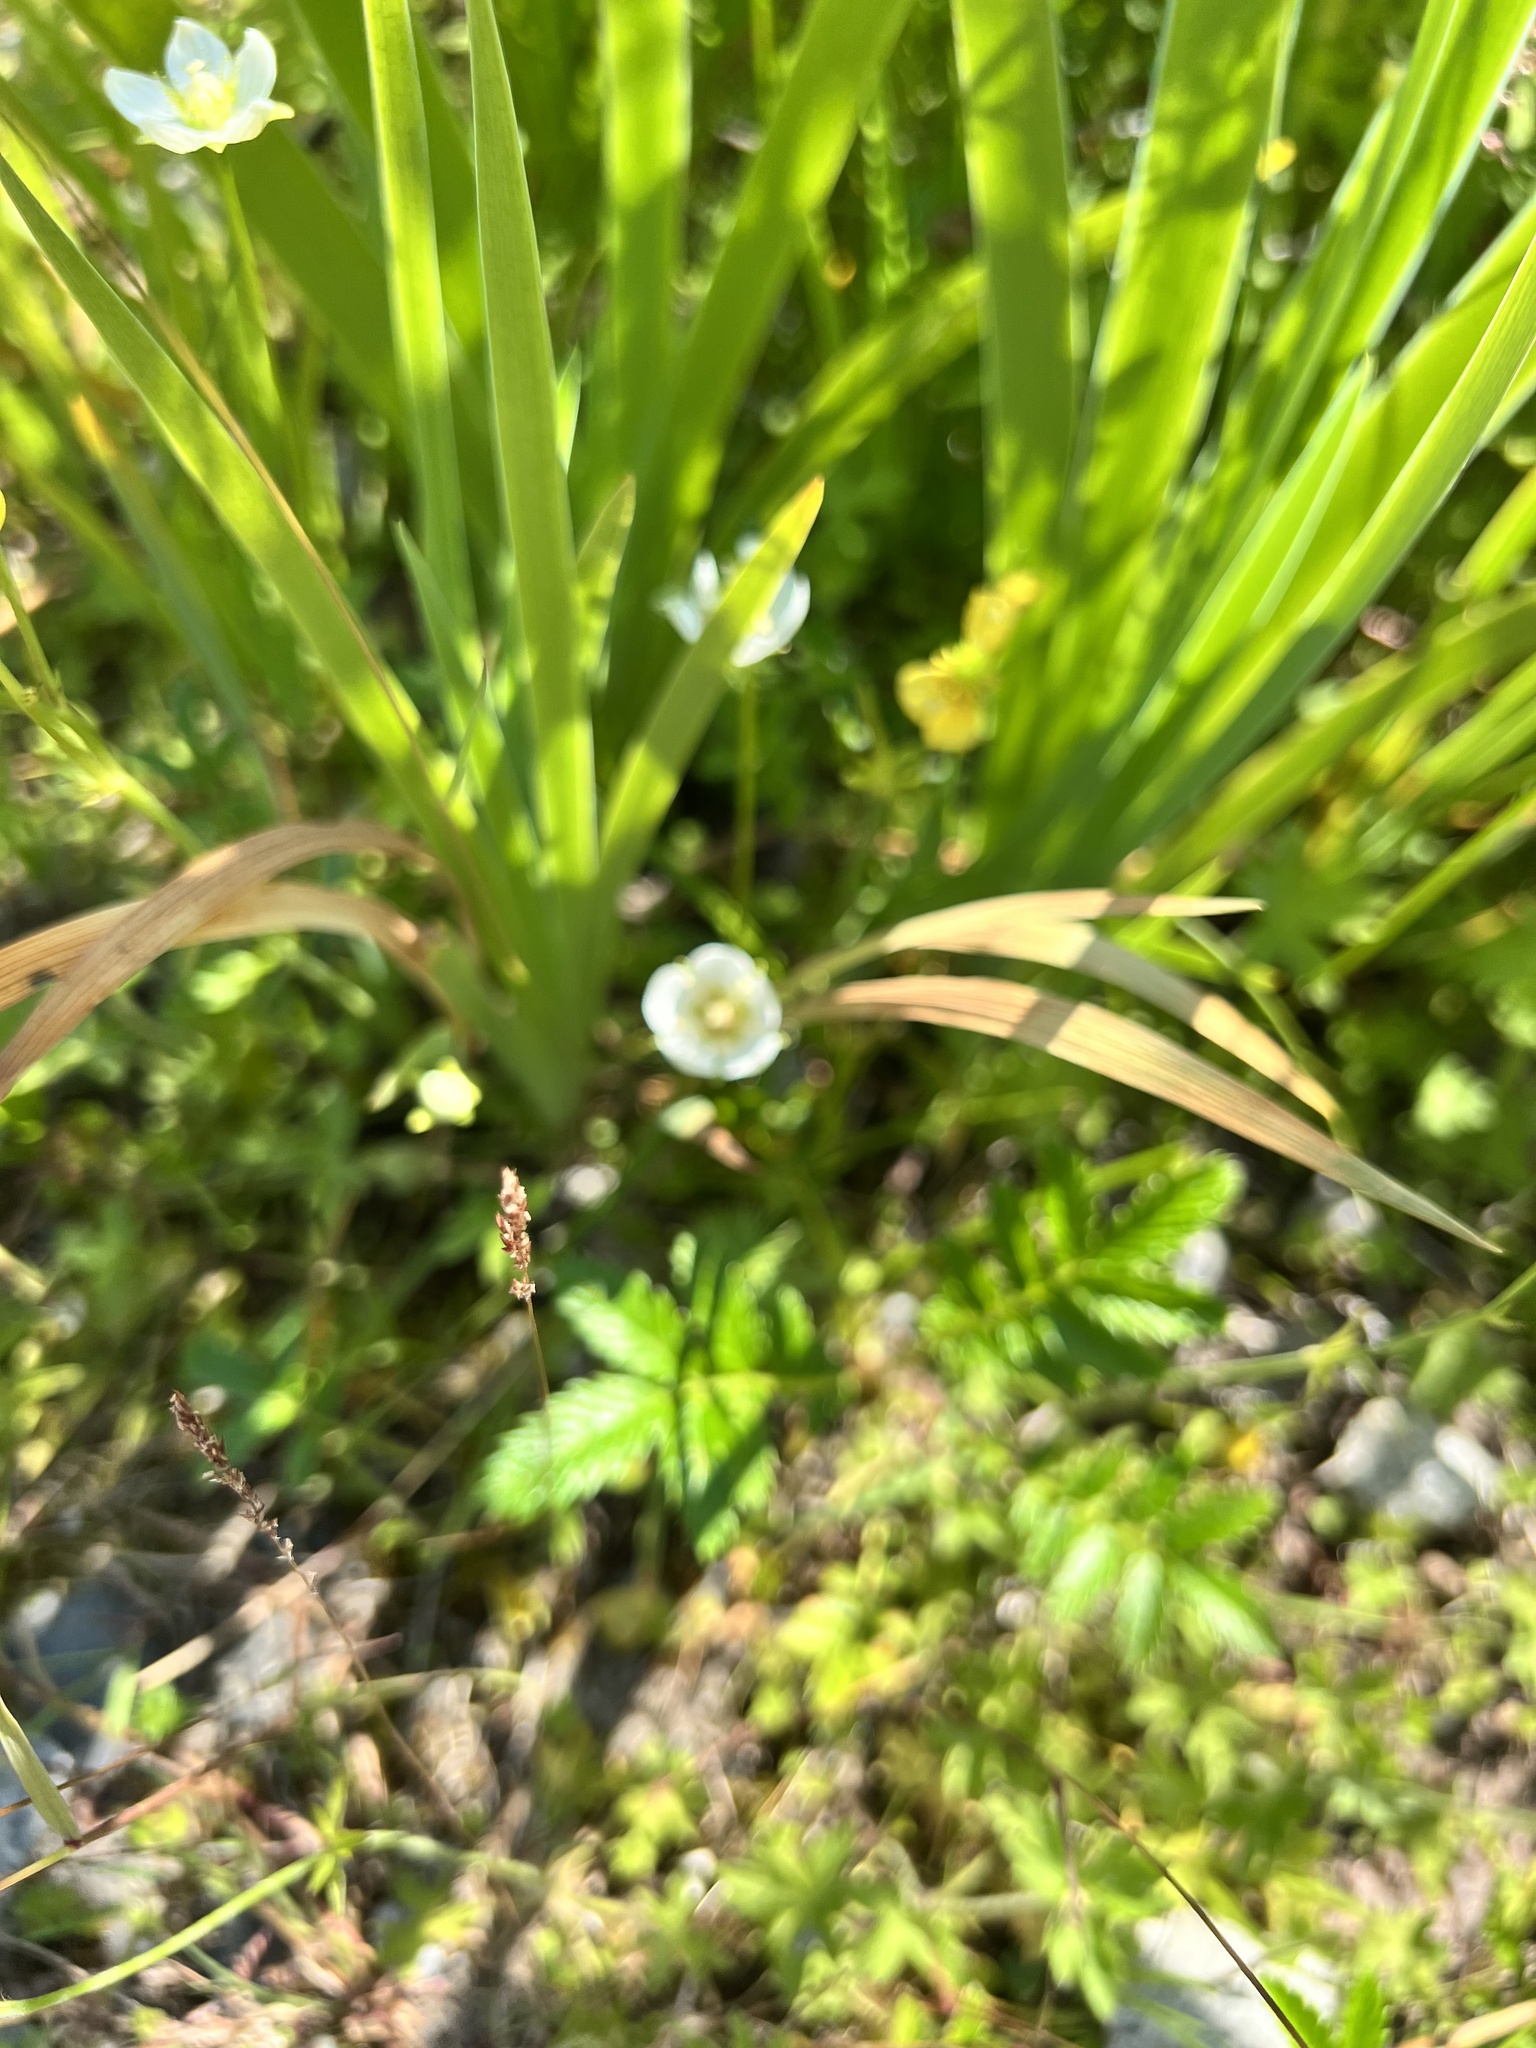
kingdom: Plantae
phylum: Tracheophyta
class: Magnoliopsida
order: Celastrales
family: Parnassiaceae
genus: Parnassia
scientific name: Parnassia palustris
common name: Grass-of-parnassus
